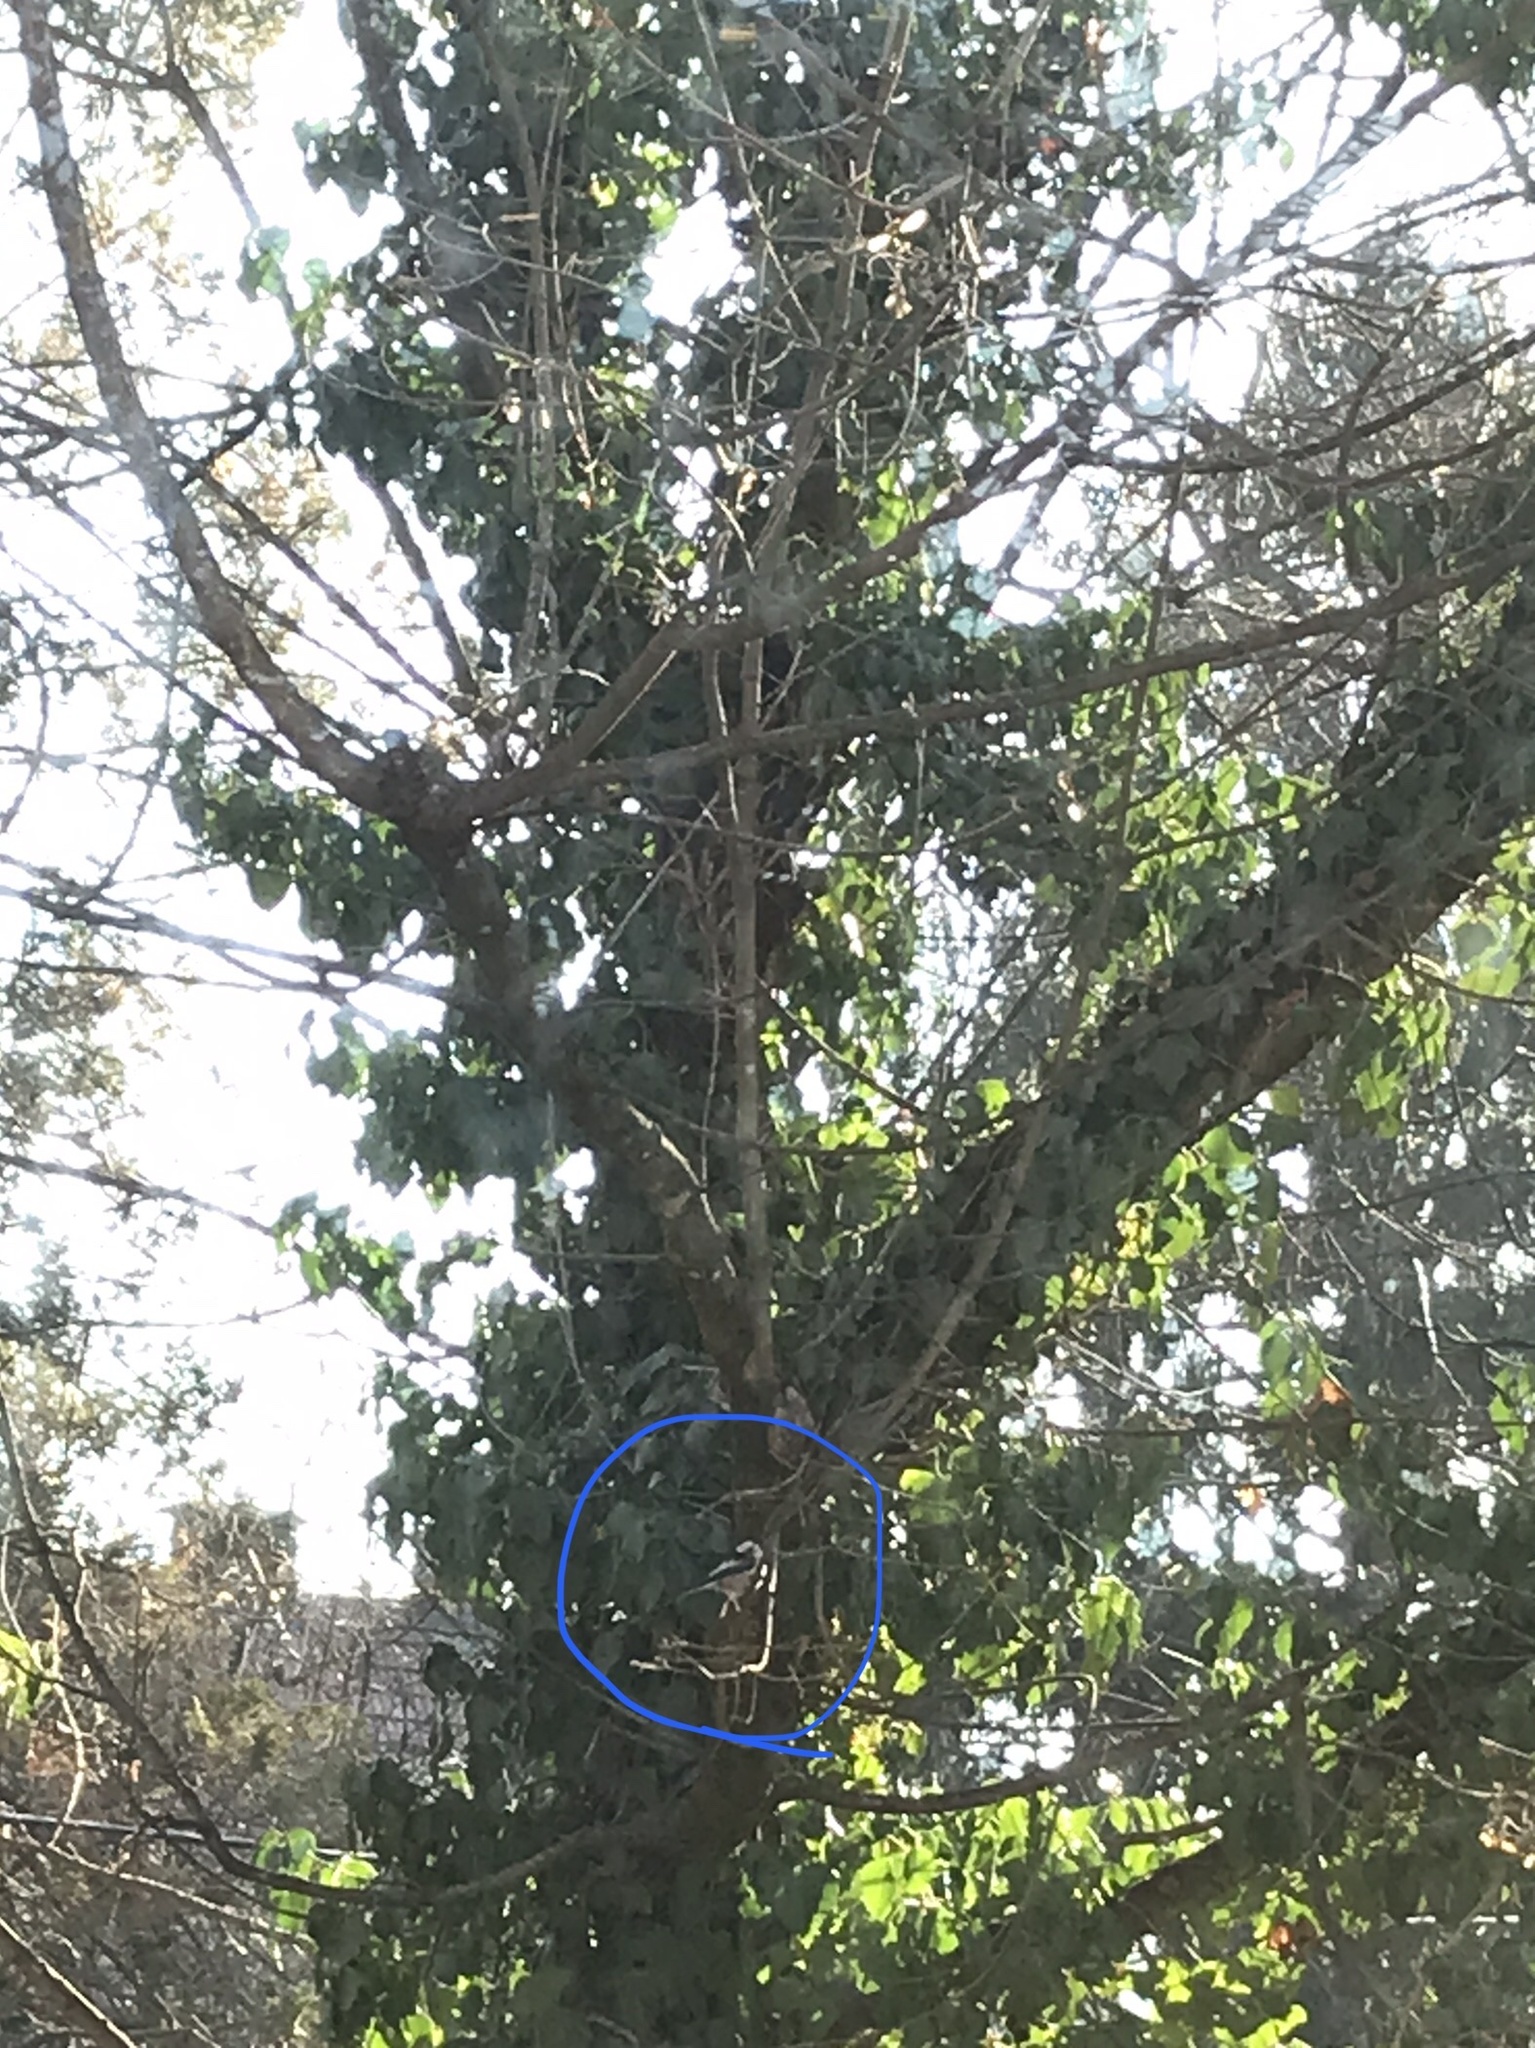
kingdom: Animalia
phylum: Chordata
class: Aves
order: Passeriformes
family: Aegithalidae
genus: Aegithalos
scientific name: Aegithalos caudatus
